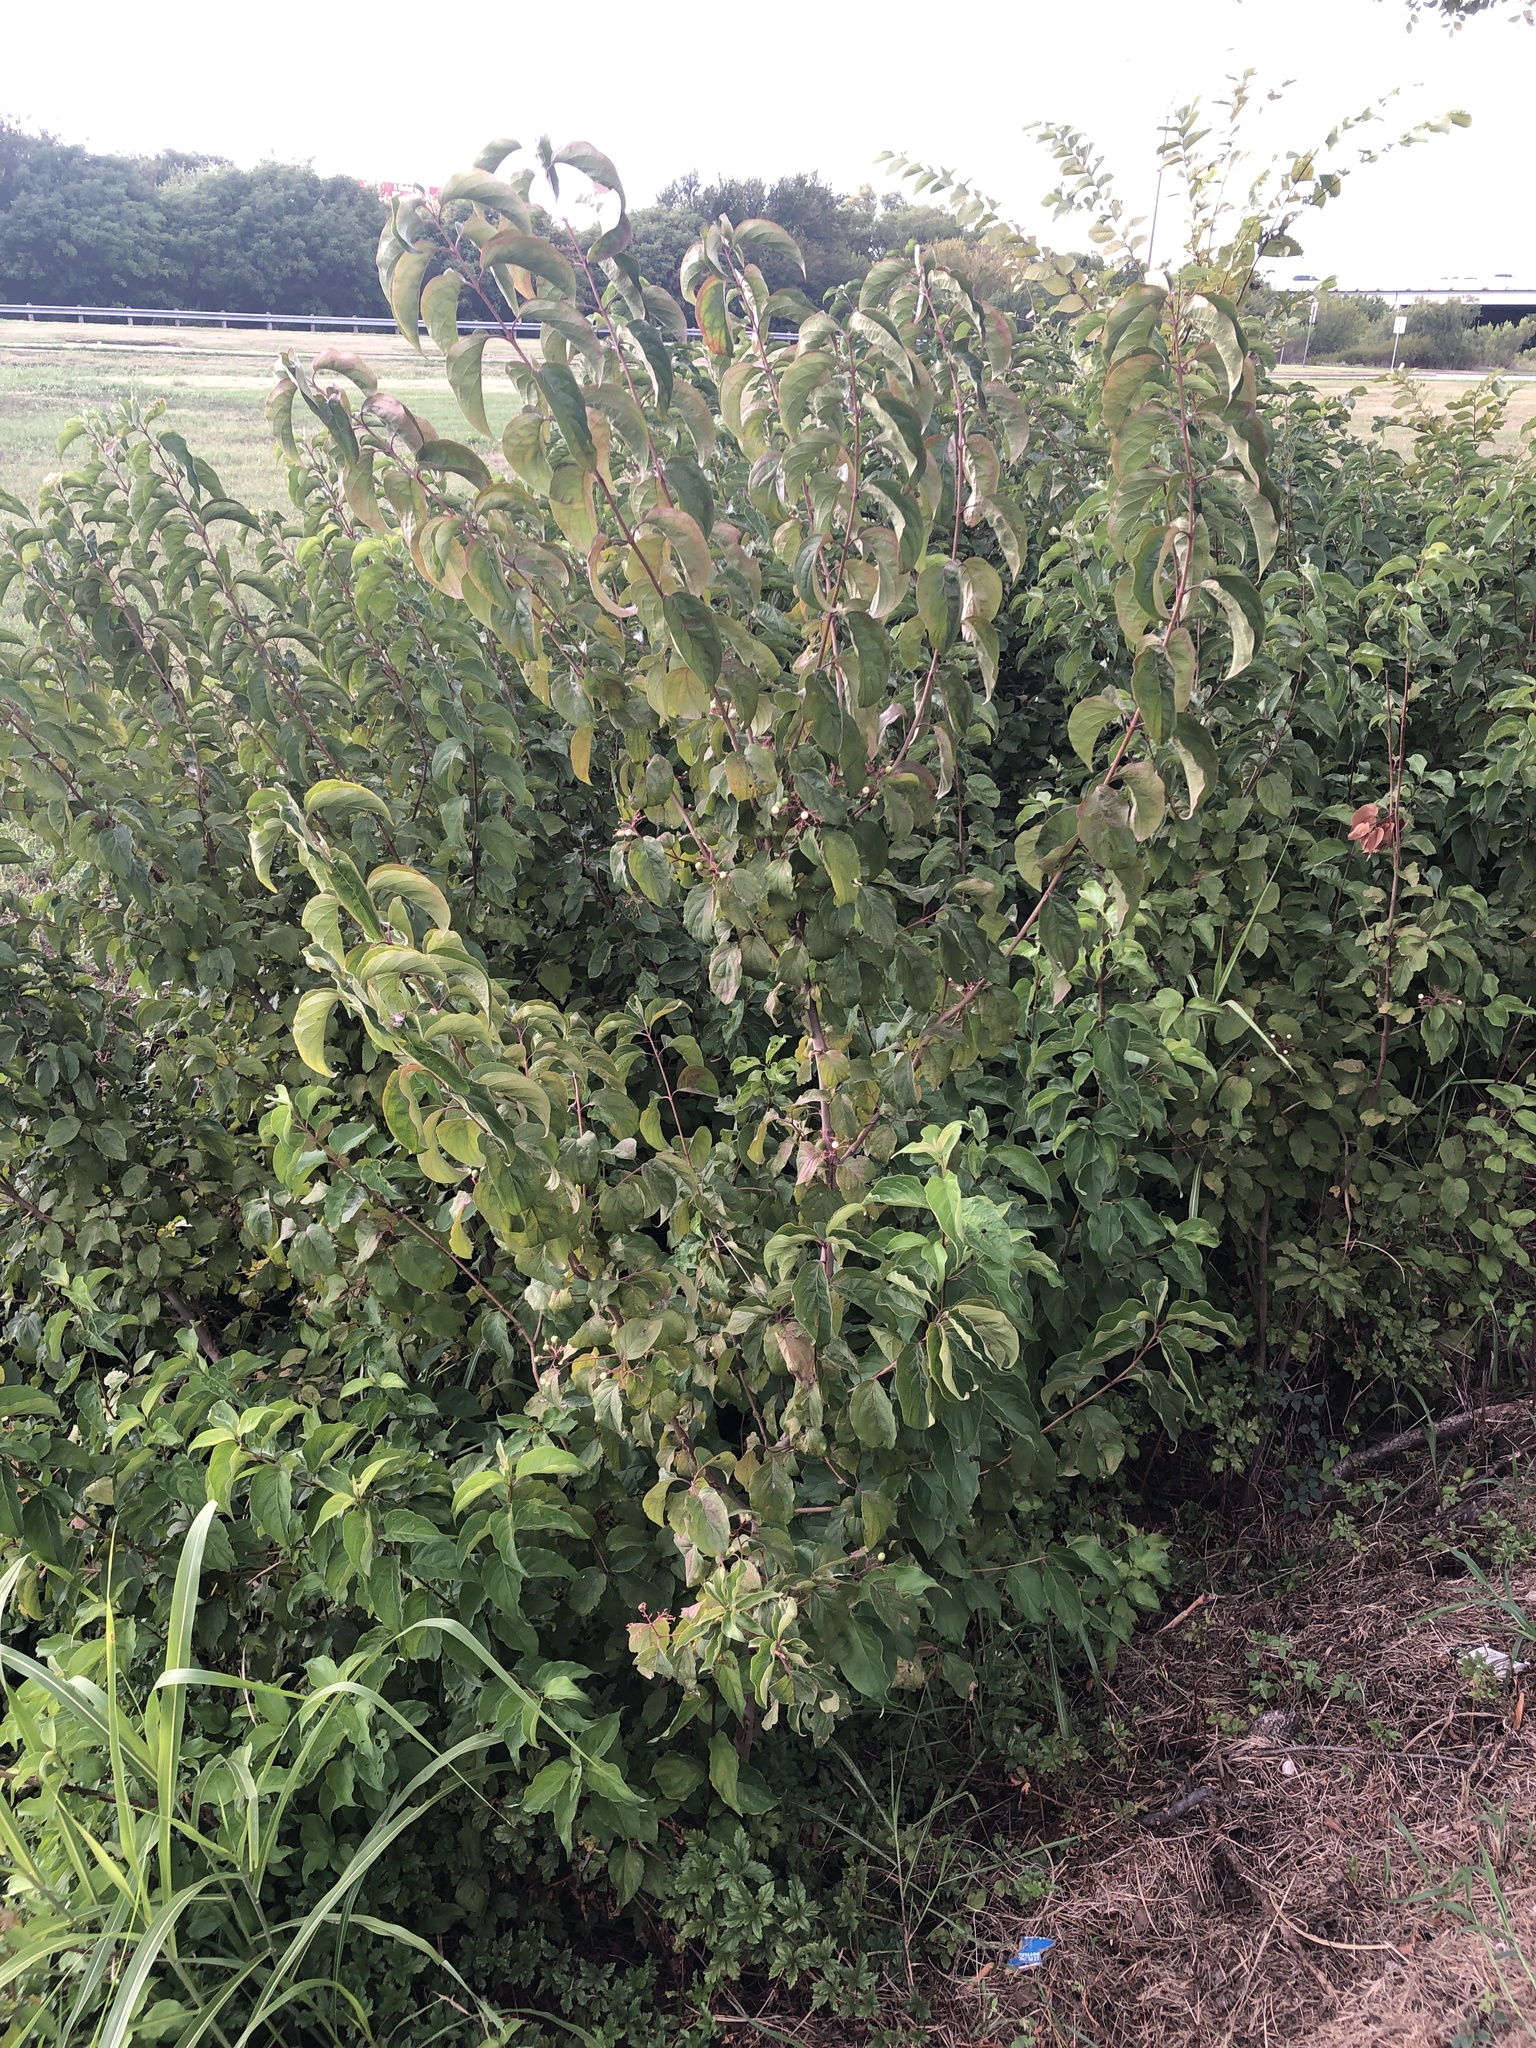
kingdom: Plantae
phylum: Tracheophyta
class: Magnoliopsida
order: Cornales
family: Cornaceae
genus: Cornus
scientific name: Cornus drummondii
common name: Rough-leaf dogwood
